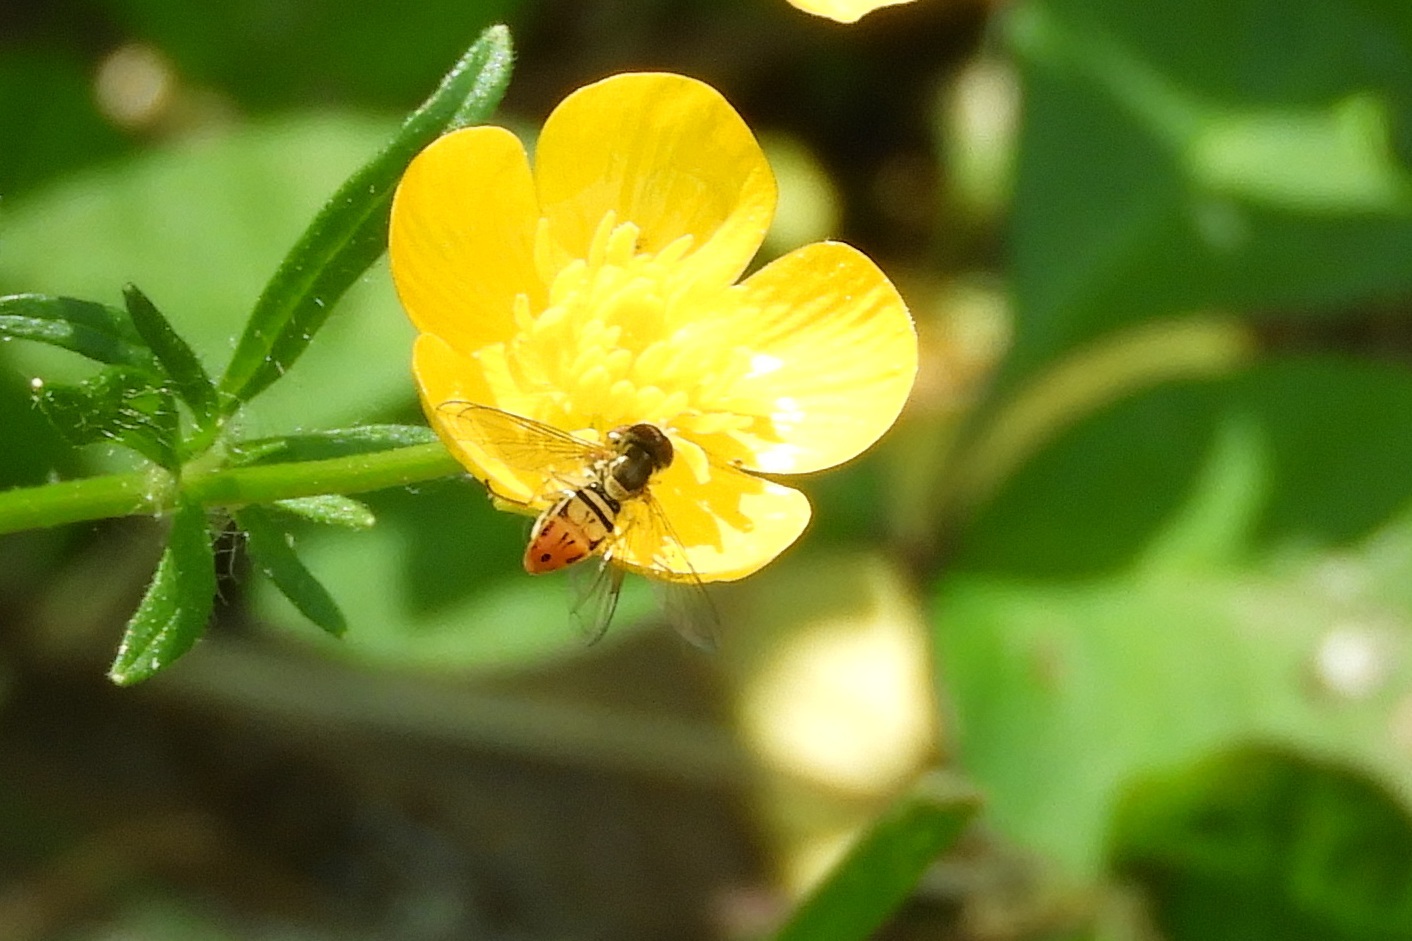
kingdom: Animalia
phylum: Arthropoda
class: Insecta
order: Diptera
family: Syrphidae
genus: Toxomerus
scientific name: Toxomerus marginatus
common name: Syrphid fly
